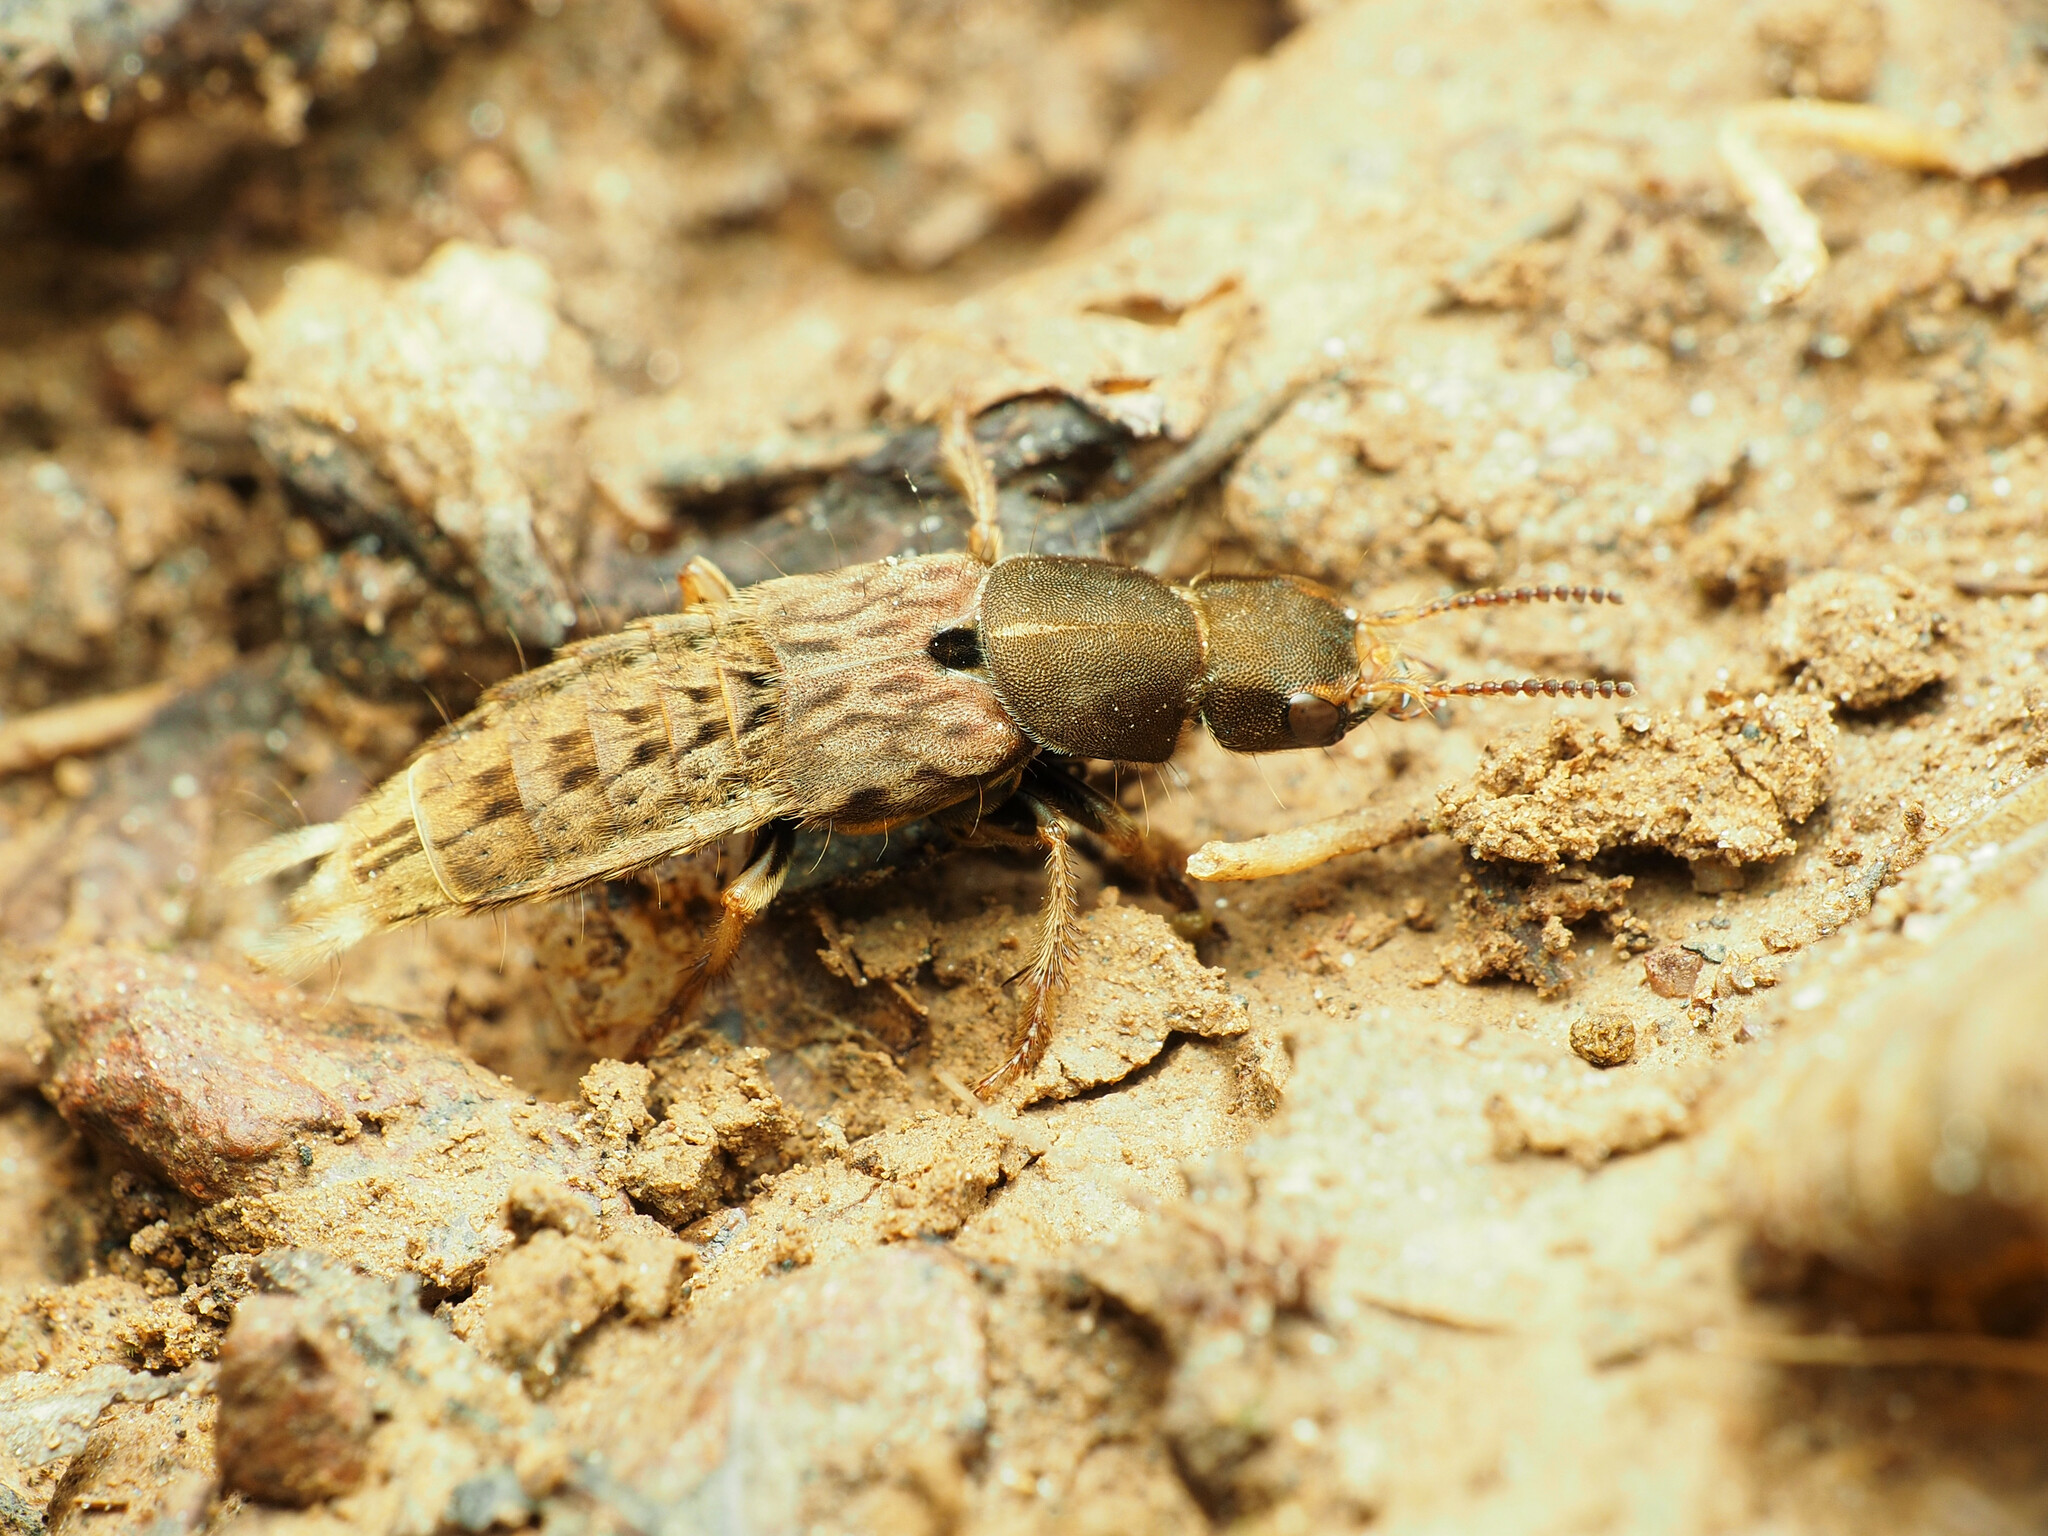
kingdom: Animalia
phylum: Arthropoda
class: Insecta
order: Coleoptera
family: Staphylinidae
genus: Platydracus
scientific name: Platydracus maculosus
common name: Brown rove beetle
